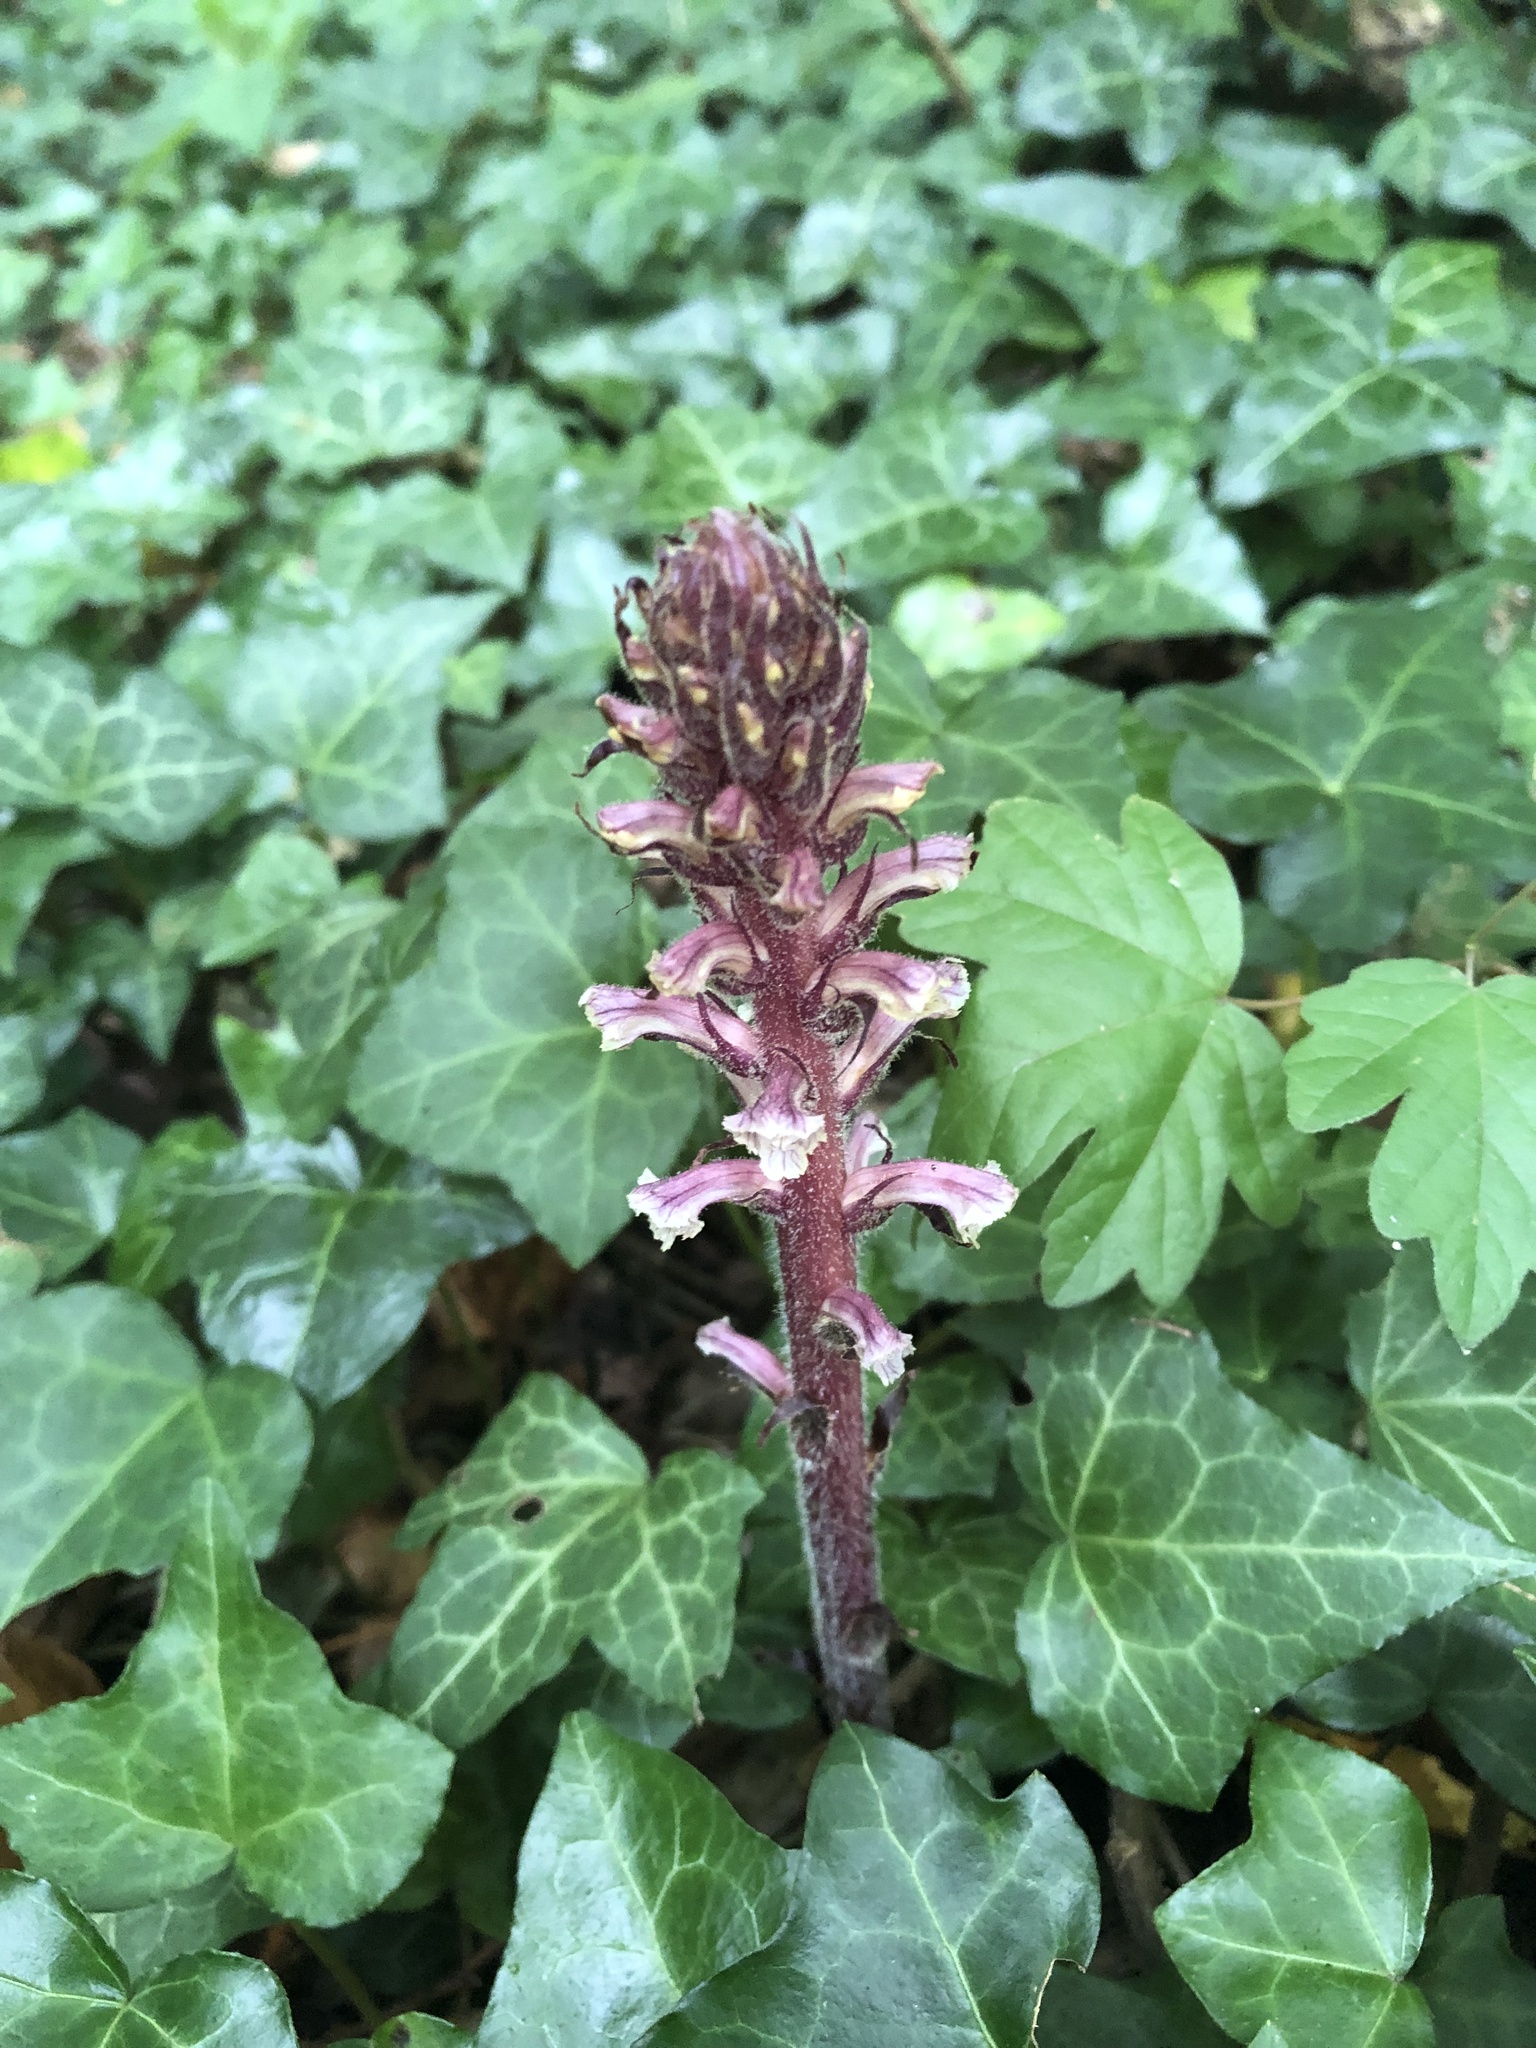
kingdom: Plantae
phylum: Tracheophyta
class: Magnoliopsida
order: Lamiales
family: Orobanchaceae
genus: Orobanche
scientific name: Orobanche hederae
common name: Ivy broomrape
